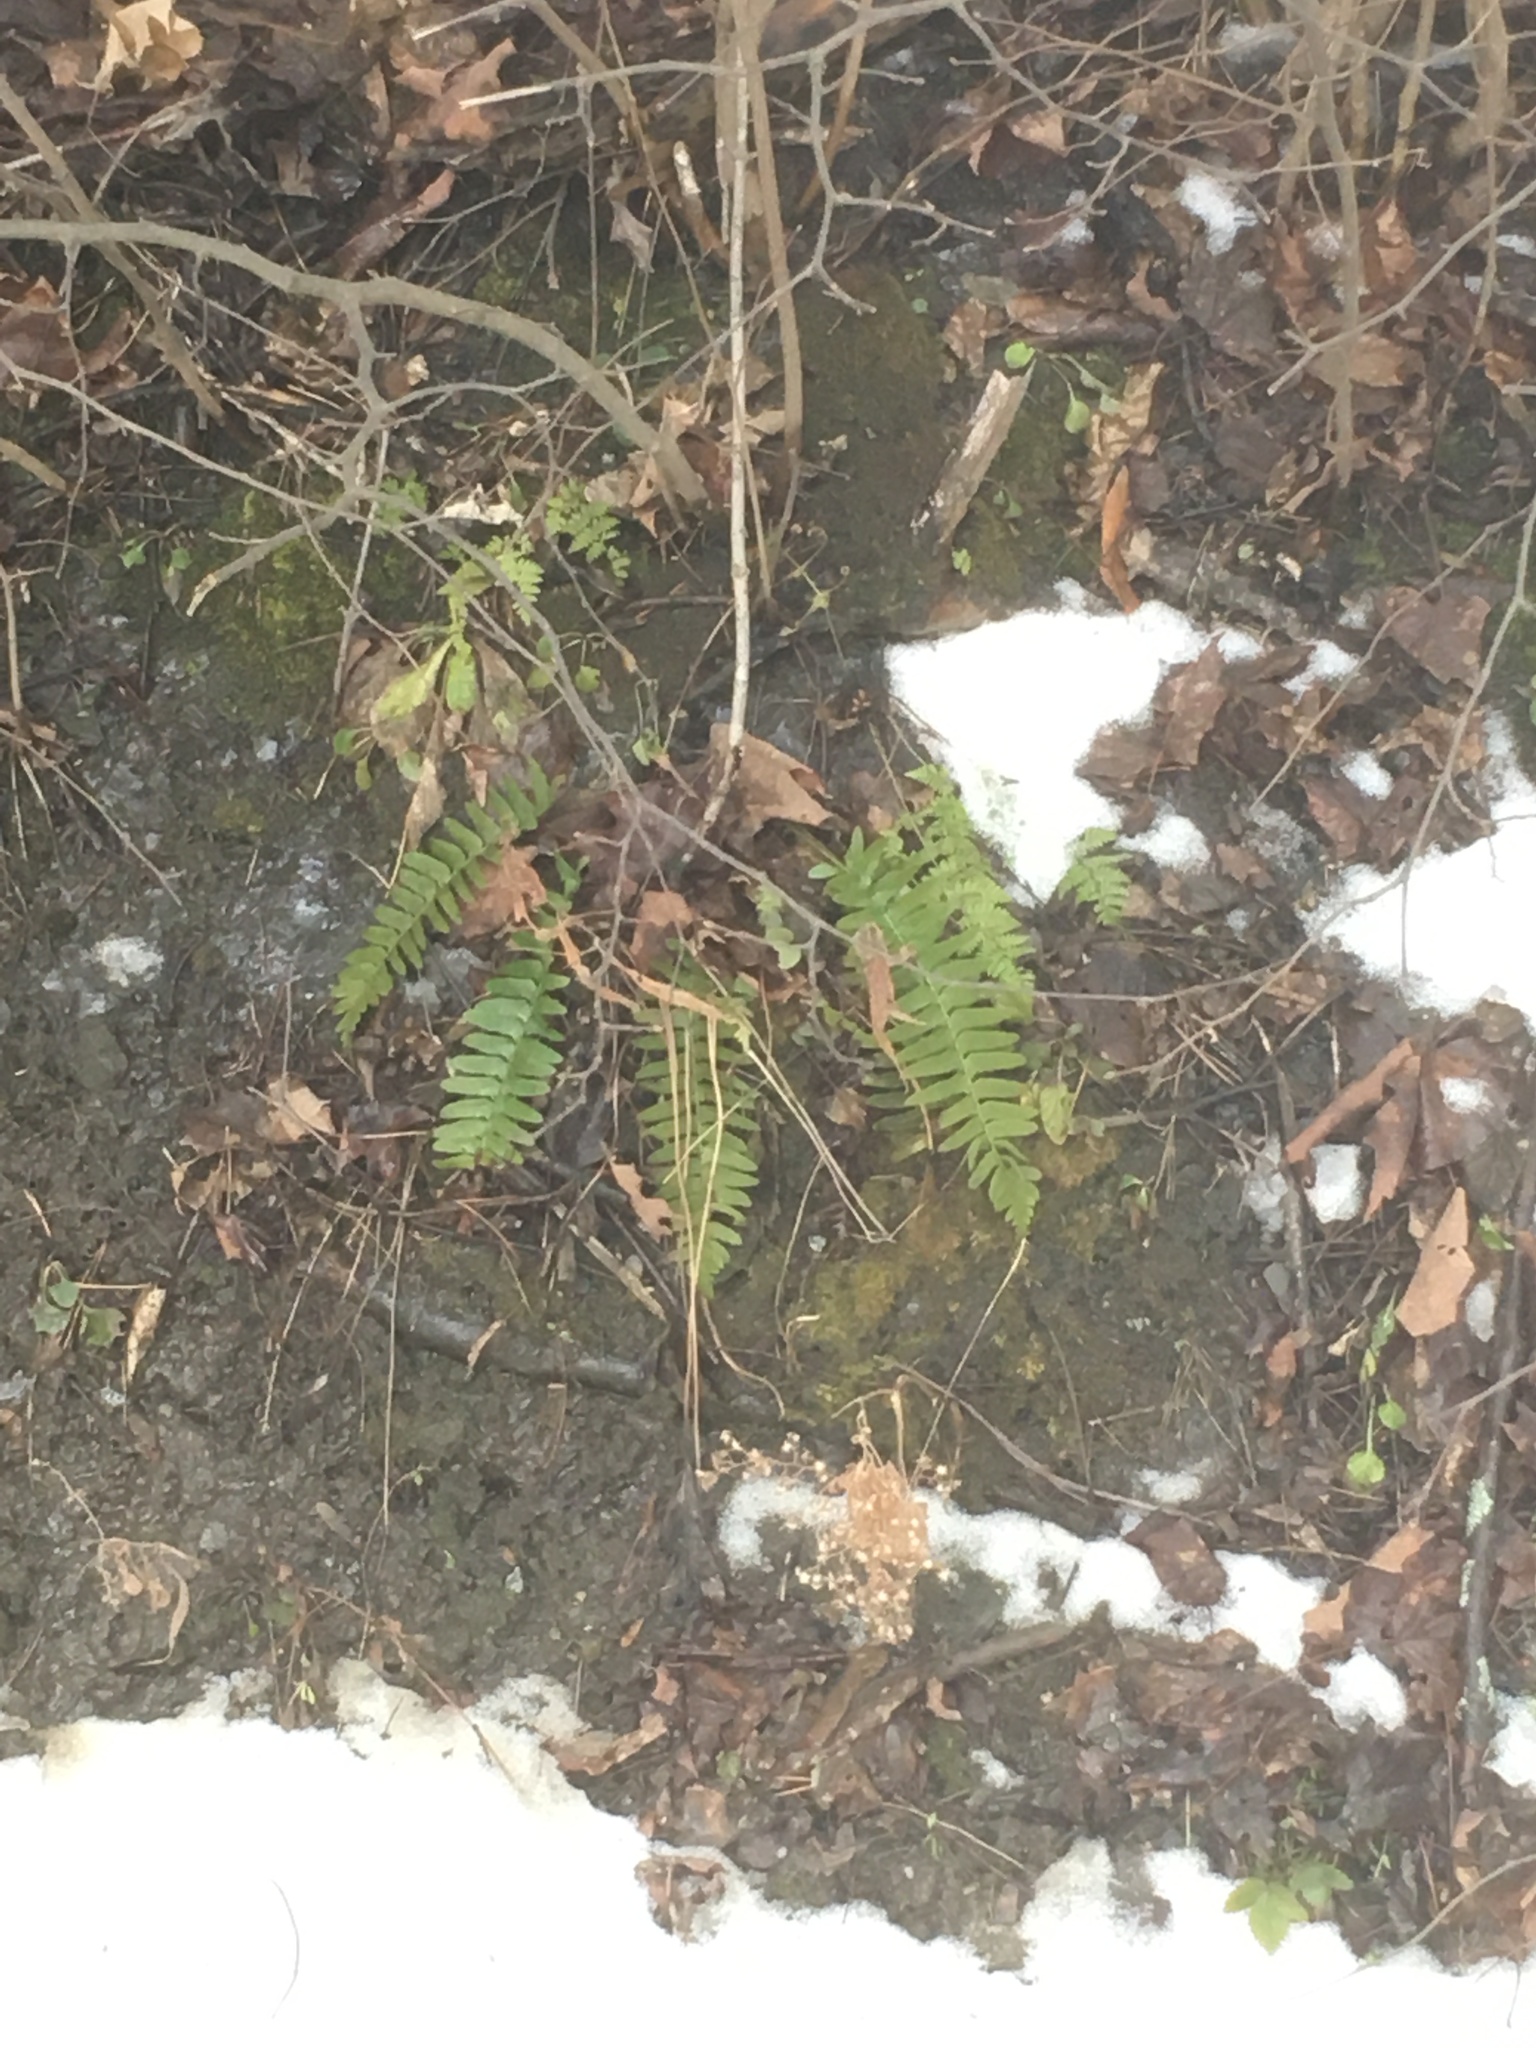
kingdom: Plantae
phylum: Tracheophyta
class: Polypodiopsida
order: Polypodiales
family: Dryopteridaceae
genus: Polystichum
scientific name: Polystichum acrostichoides
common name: Christmas fern
